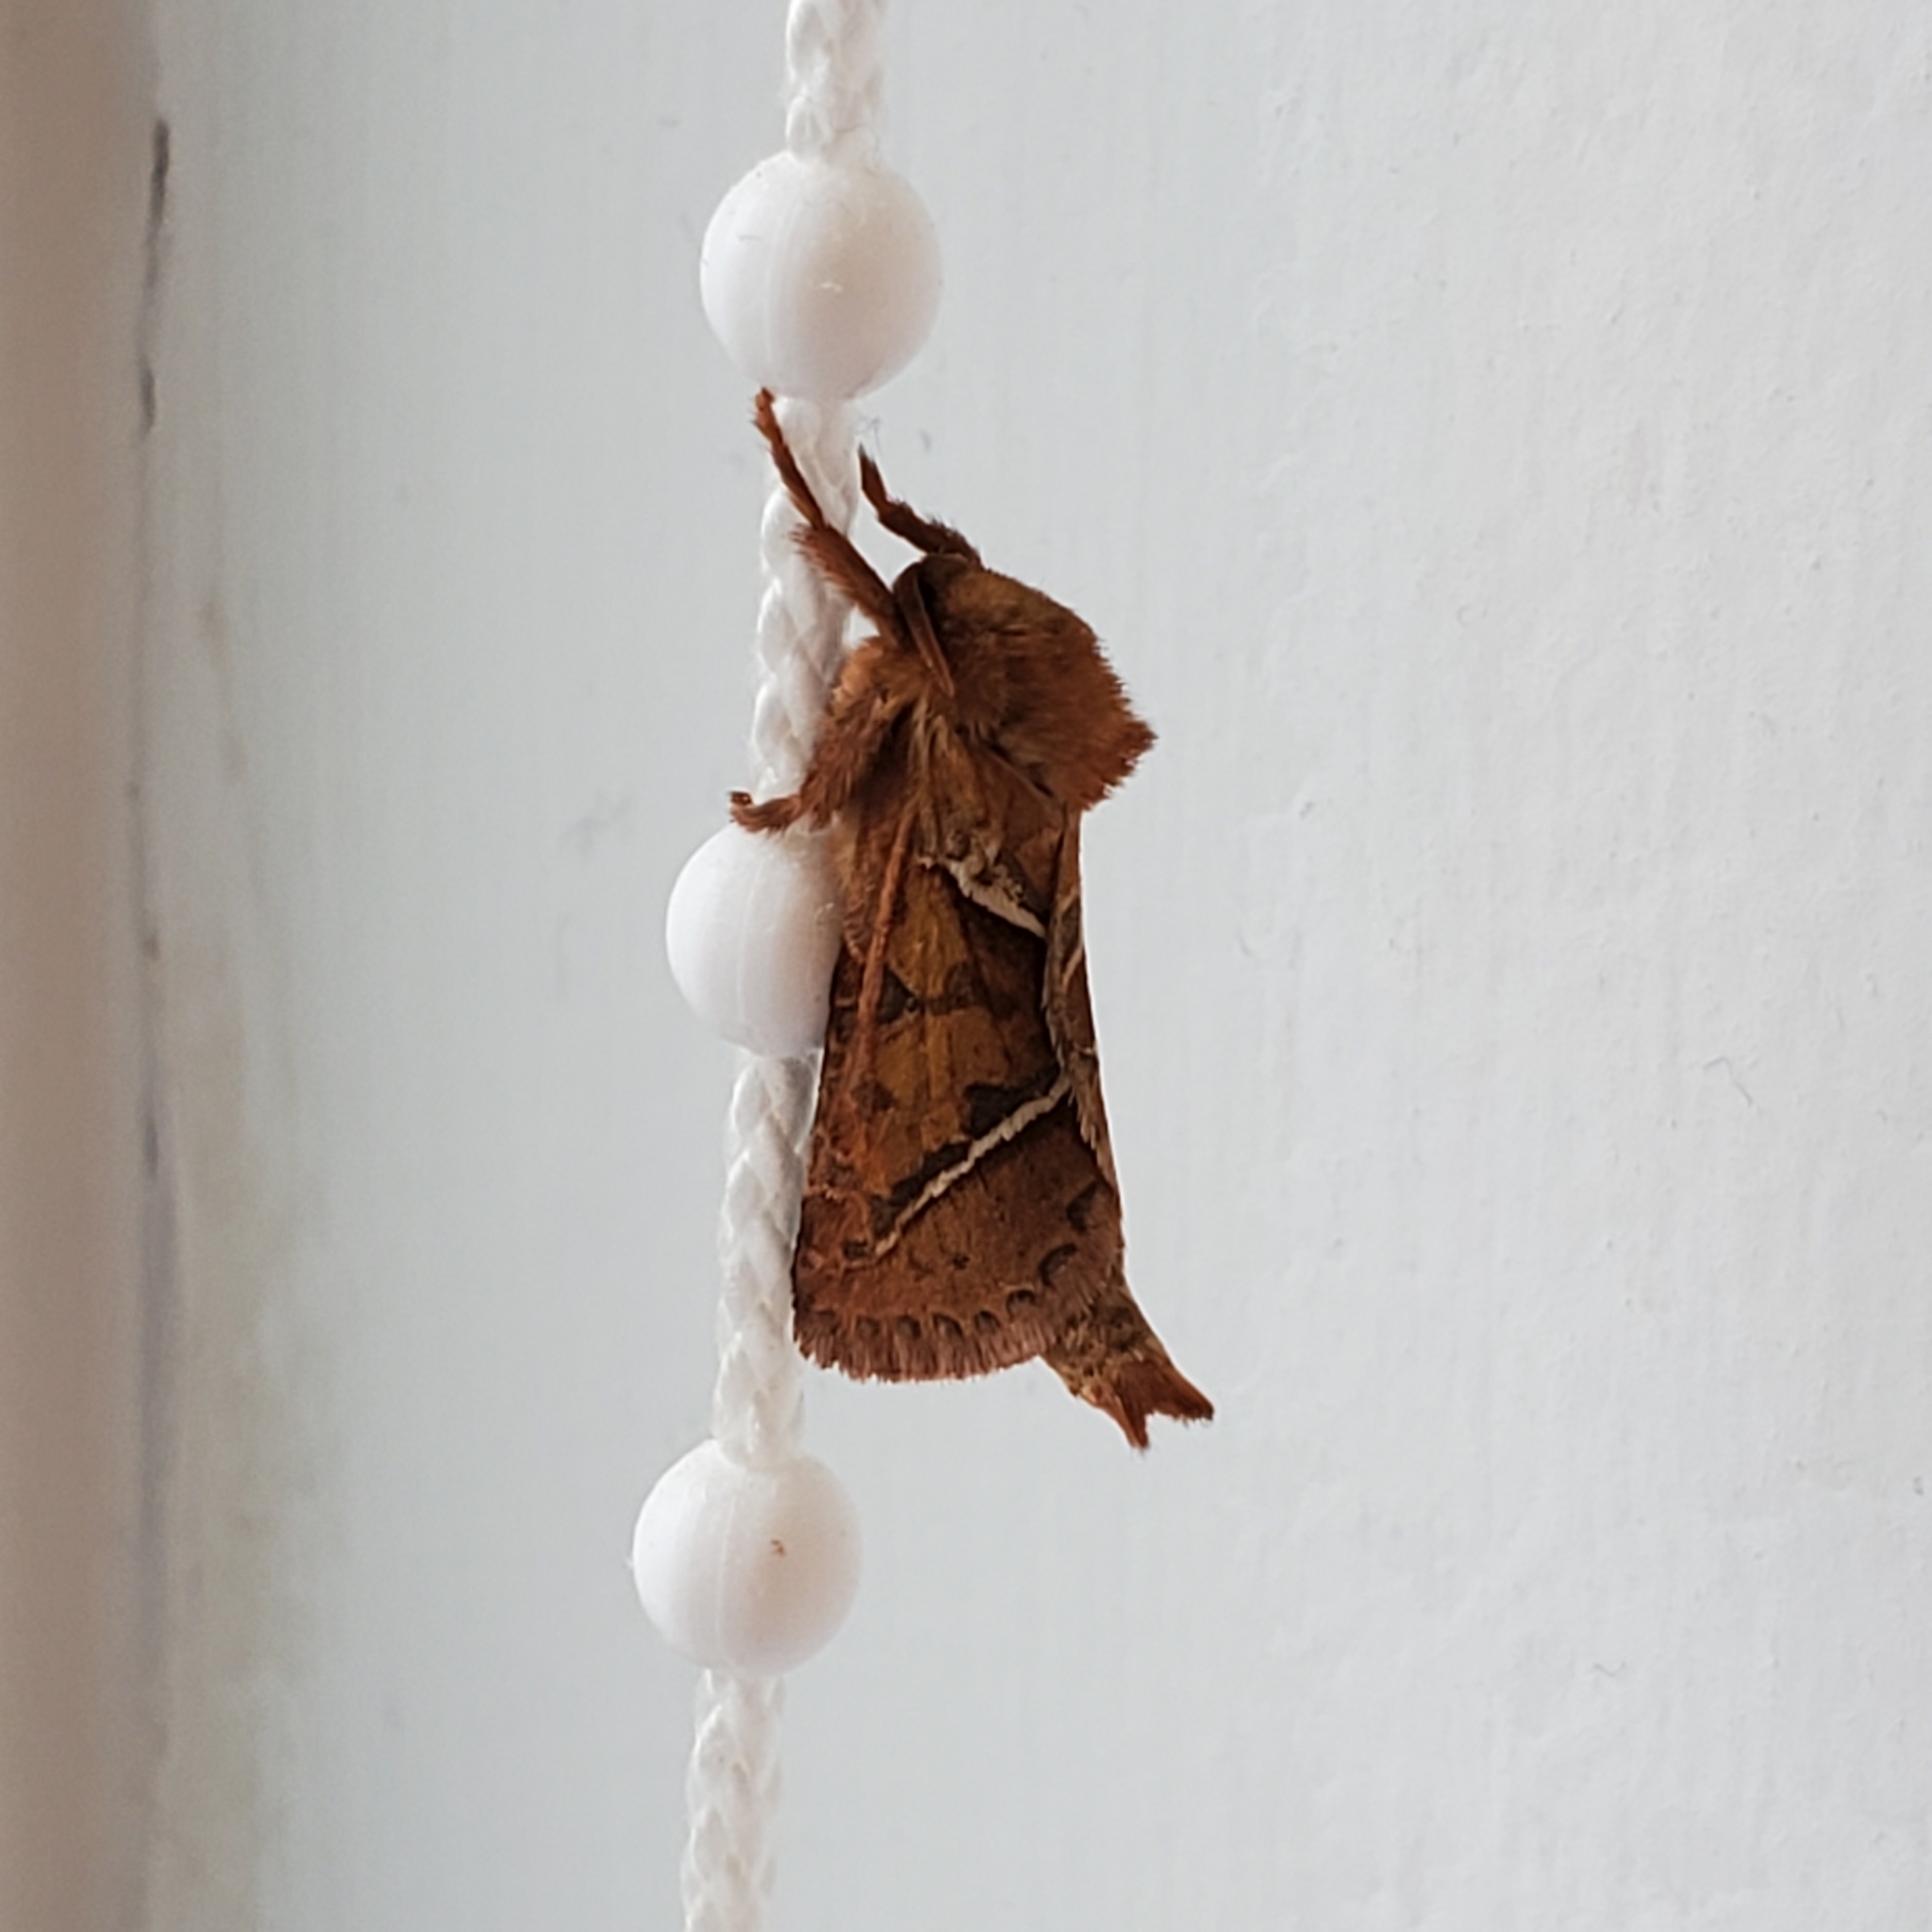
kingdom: Animalia
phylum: Arthropoda
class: Insecta
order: Lepidoptera
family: Hepialidae
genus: Triodia
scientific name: Triodia sylvina
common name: Orange swift
